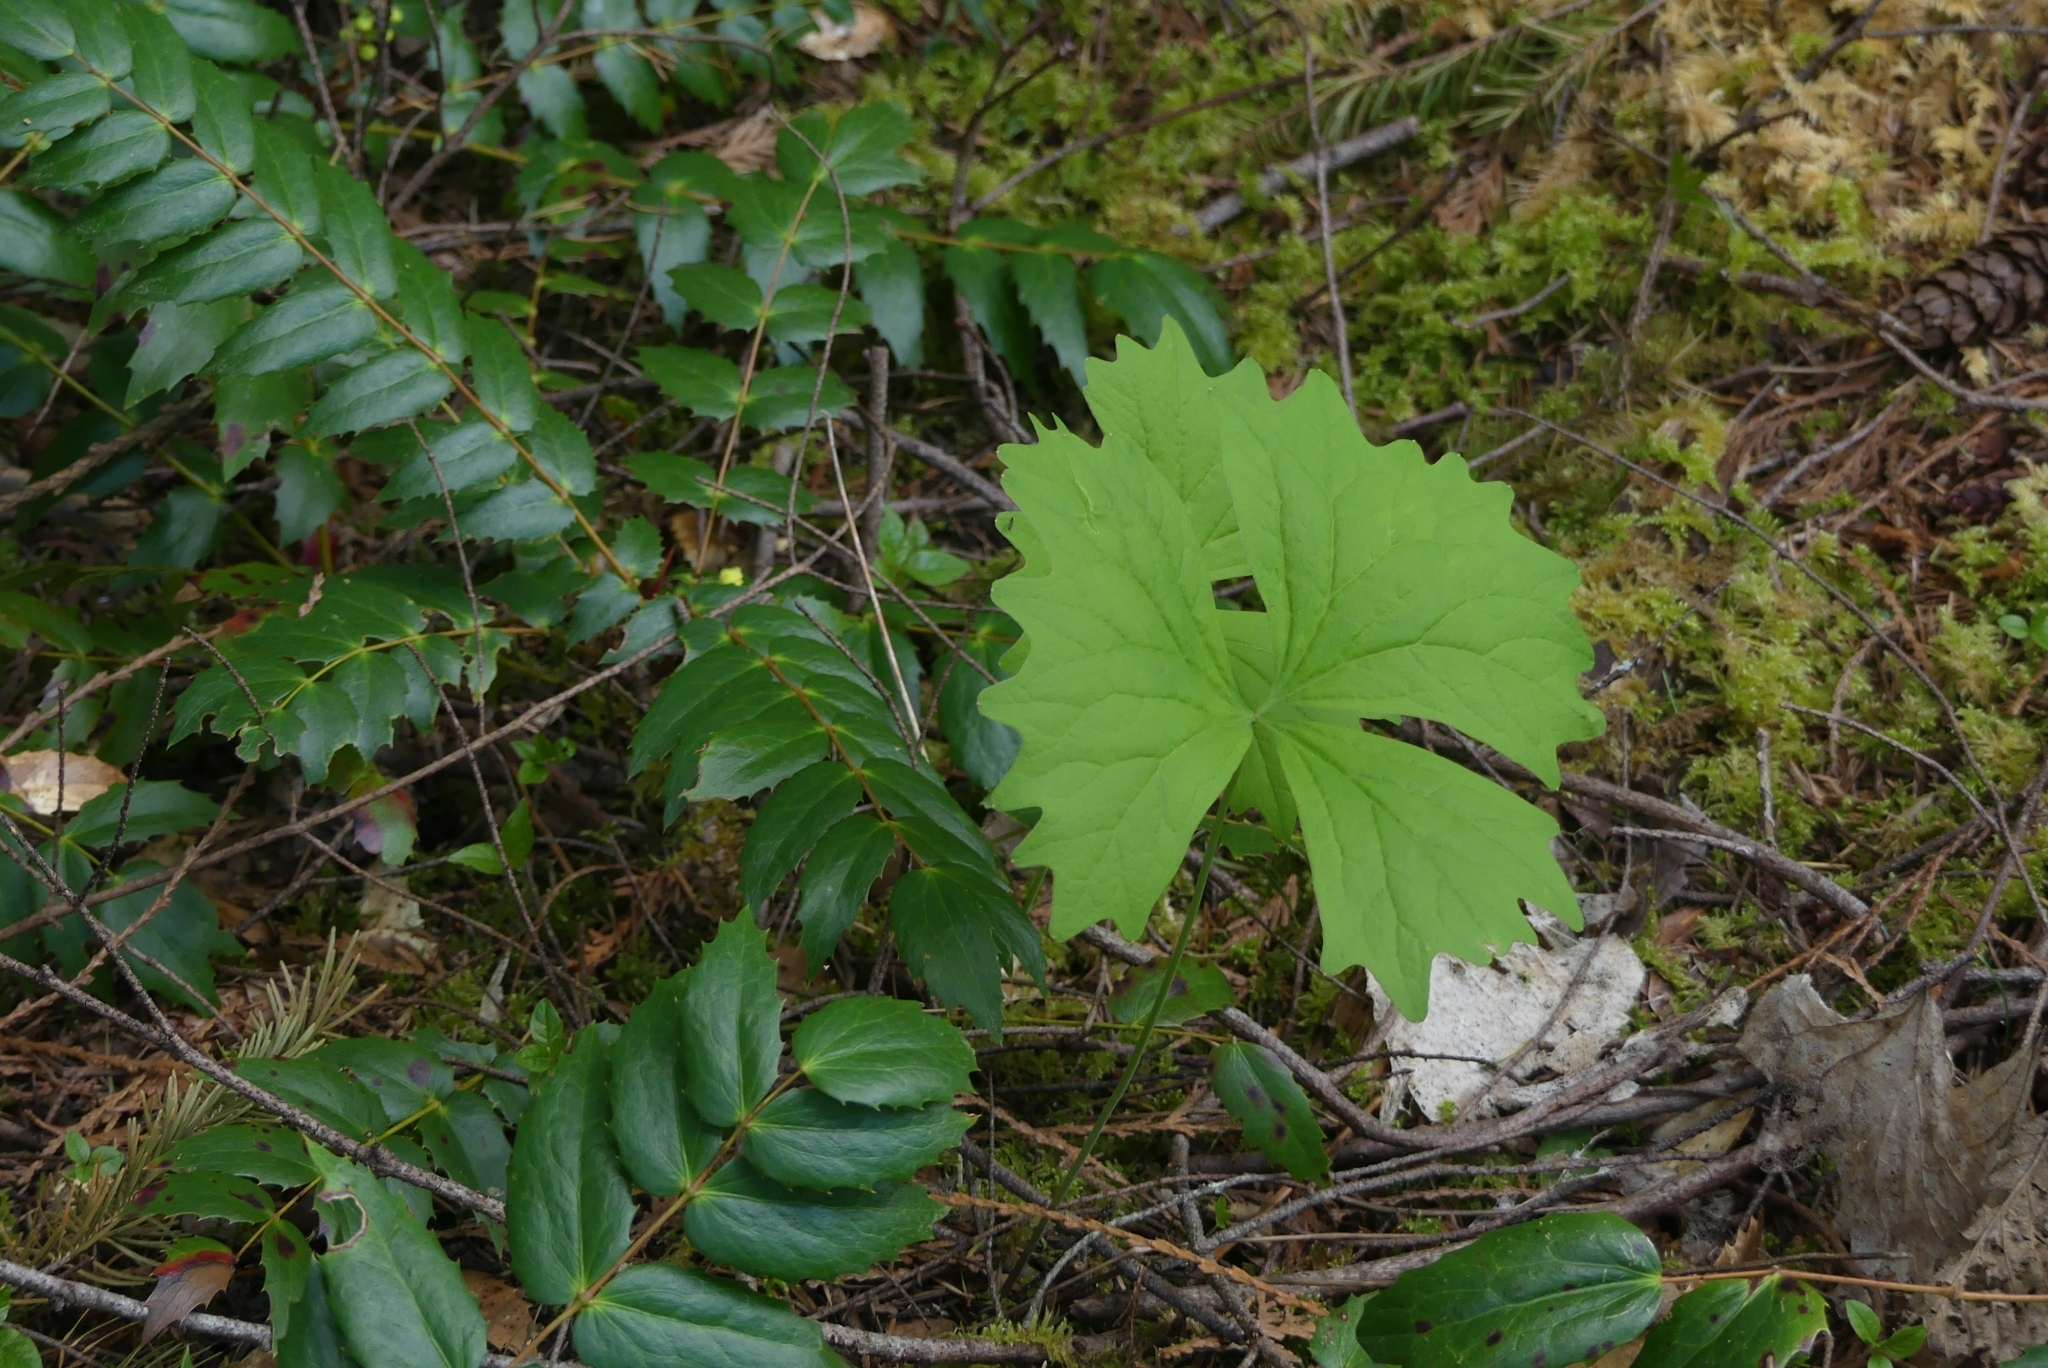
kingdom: Plantae
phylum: Tracheophyta
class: Magnoliopsida
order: Ranunculales
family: Berberidaceae
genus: Achlys
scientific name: Achlys triphylla
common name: Vanilla-leaf
